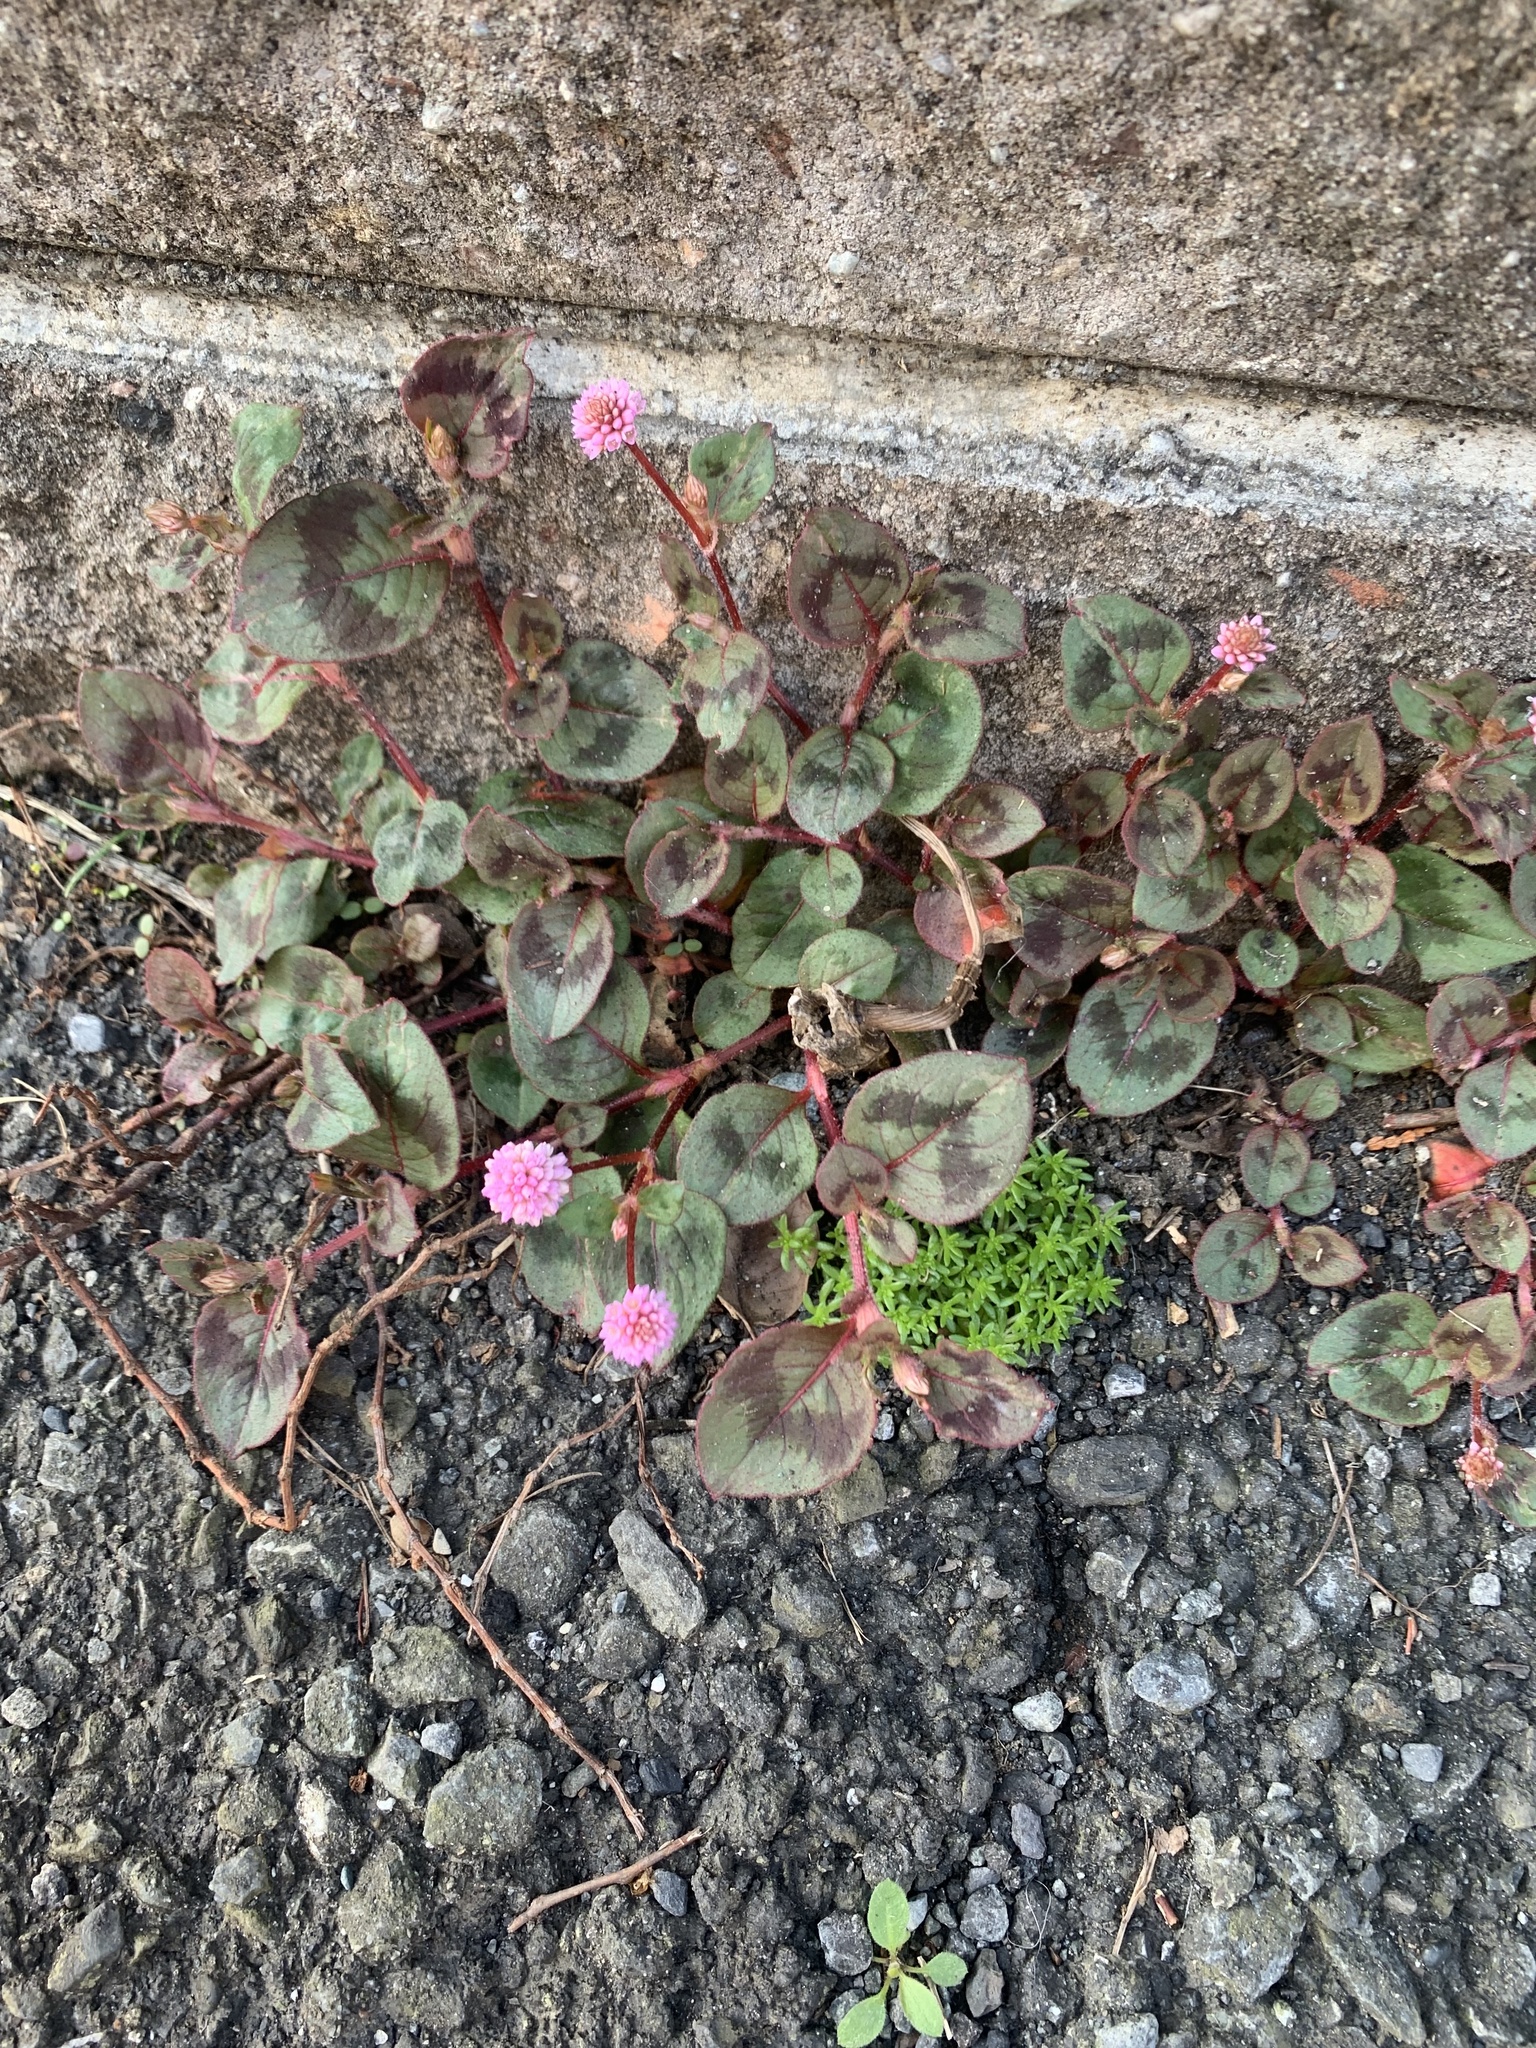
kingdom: Plantae
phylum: Tracheophyta
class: Magnoliopsida
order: Caryophyllales
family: Polygonaceae
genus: Persicaria
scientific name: Persicaria capitata
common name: Pinkhead smartweed
